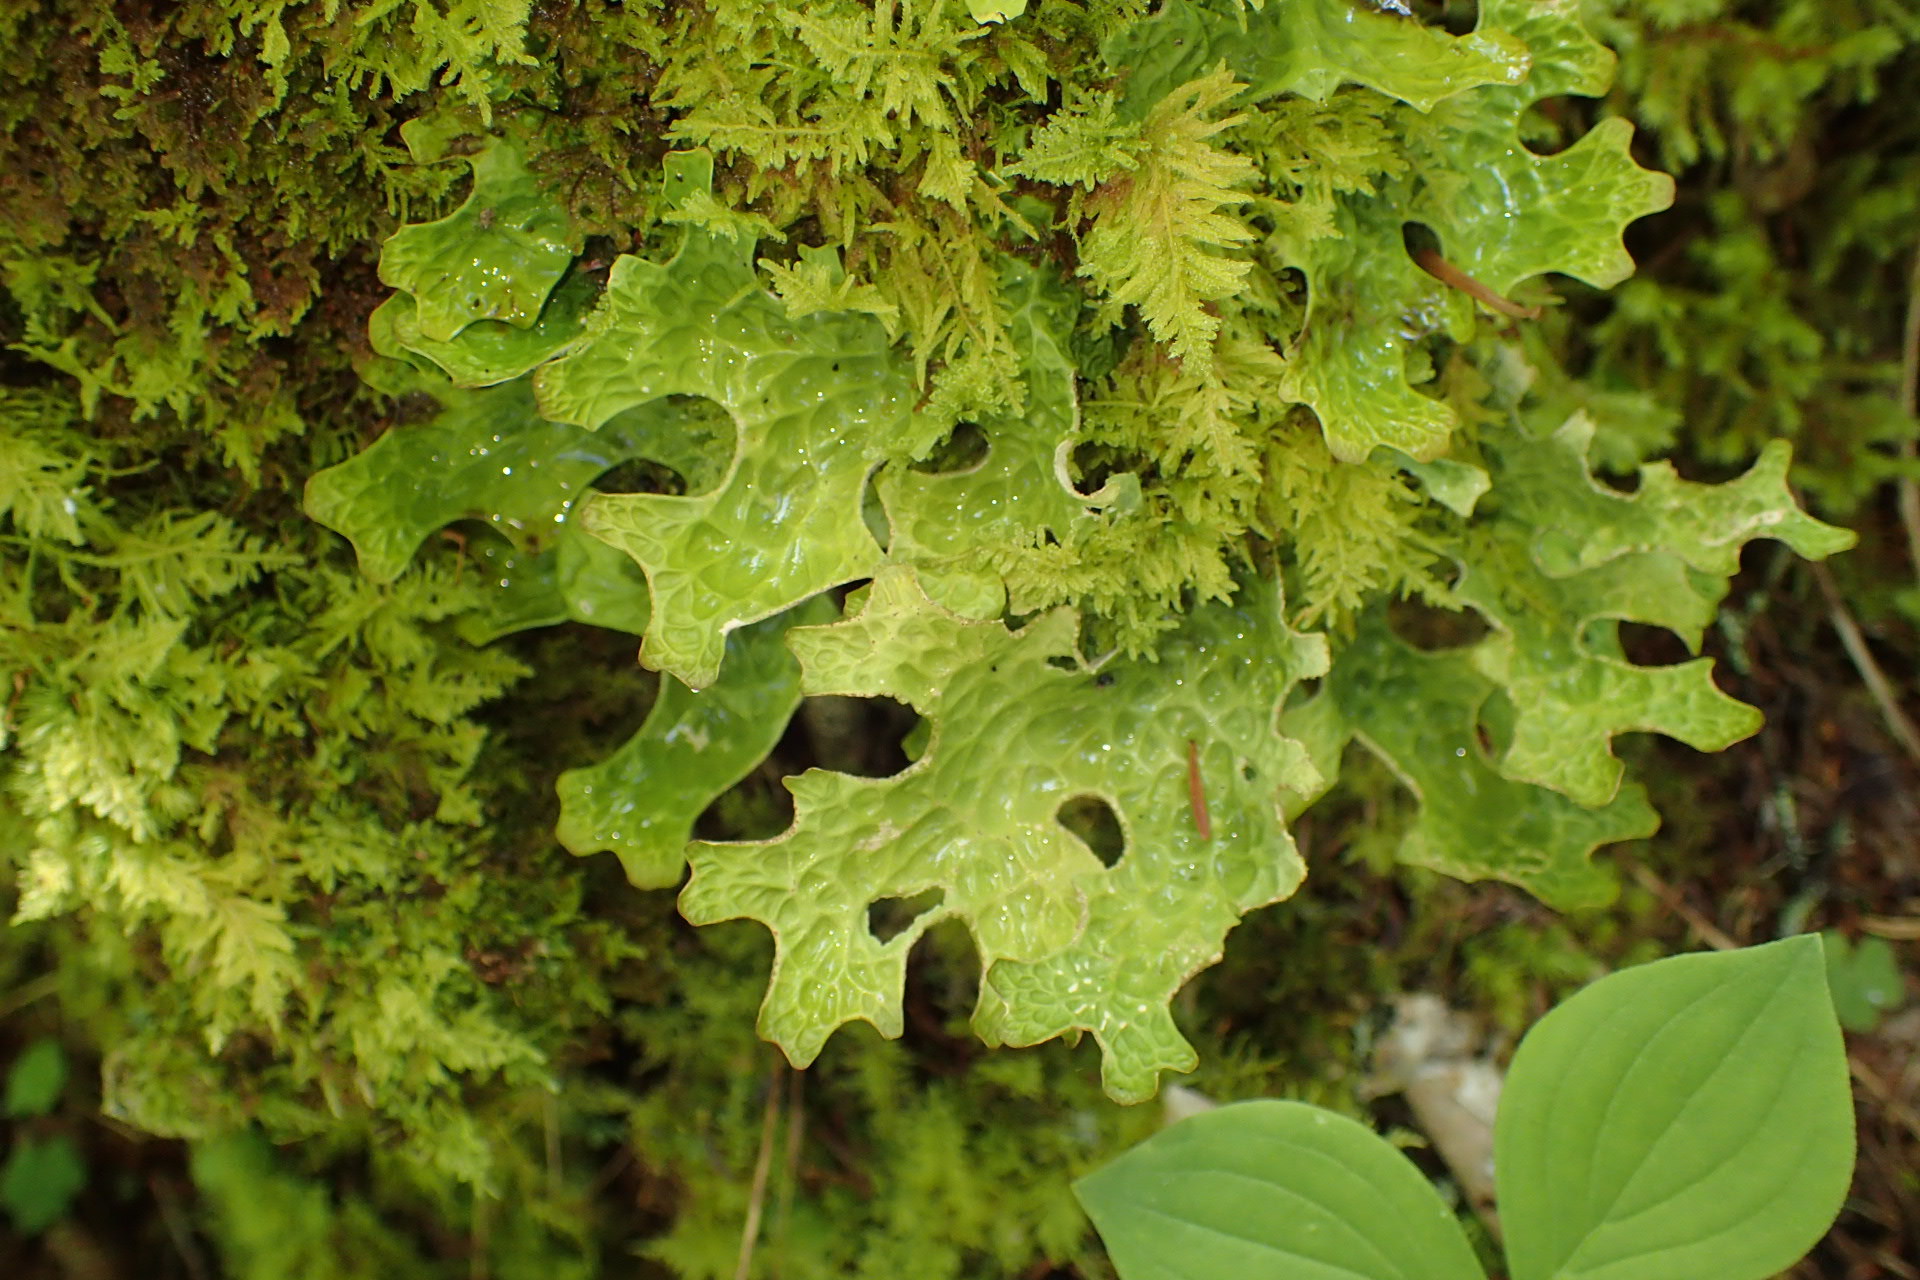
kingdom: Fungi
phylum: Ascomycota
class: Lecanoromycetes
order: Peltigerales
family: Lobariaceae
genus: Lobaria
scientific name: Lobaria pulmonaria
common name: Lungwort
